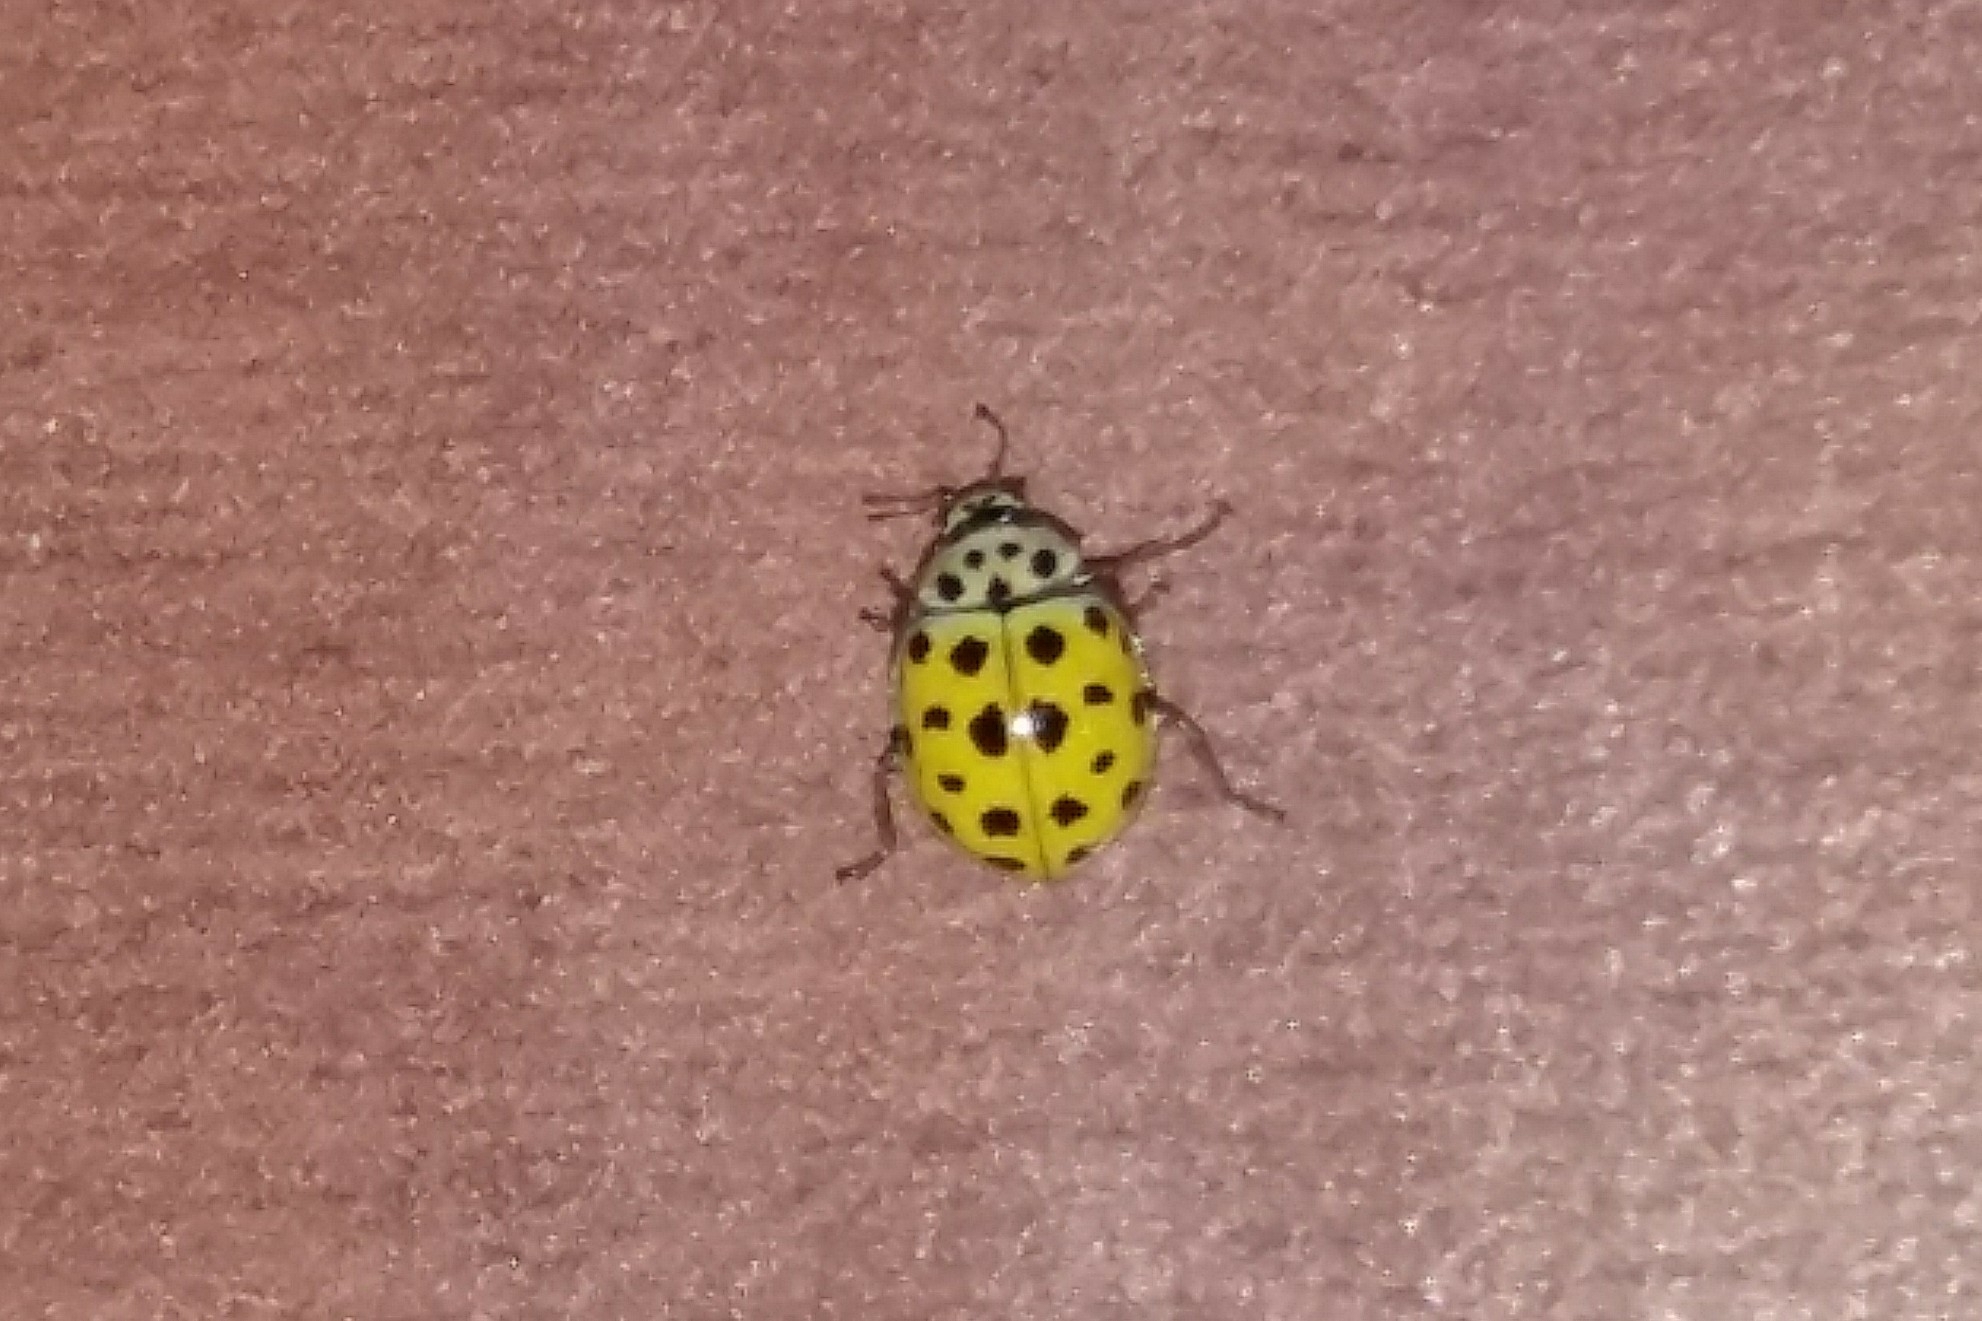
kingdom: Animalia
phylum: Arthropoda
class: Insecta
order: Coleoptera
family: Coccinellidae
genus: Psyllobora
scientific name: Psyllobora vigintiduopunctata
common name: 22-spot ladybird
